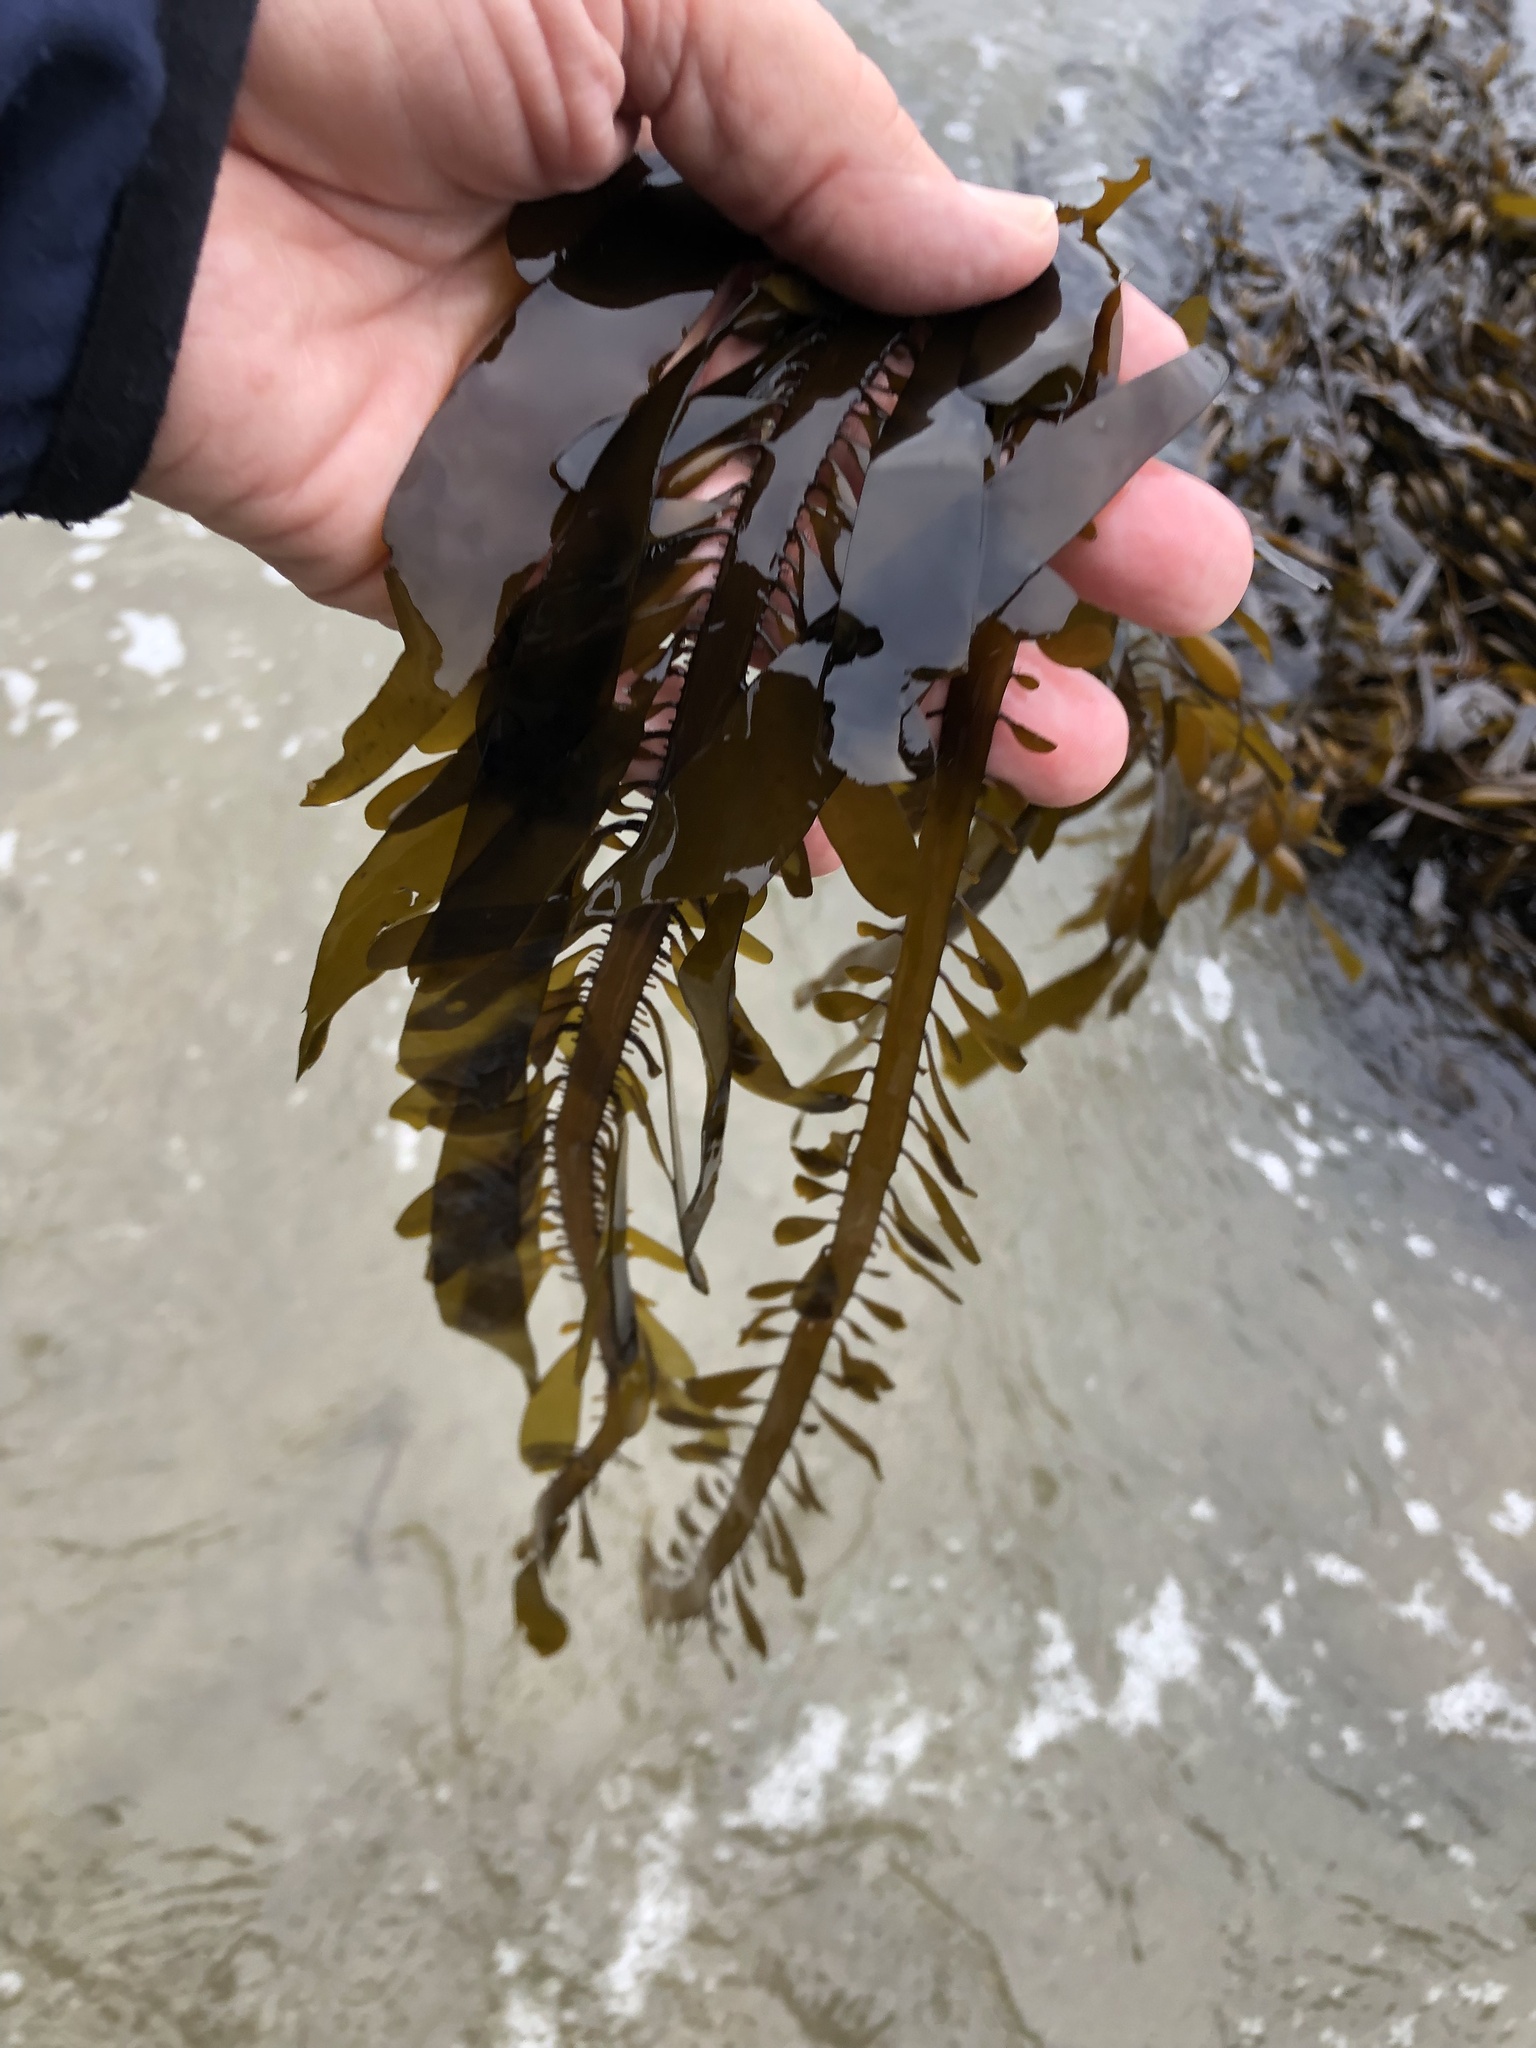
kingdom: Chromista
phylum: Ochrophyta
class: Phaeophyceae
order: Laminariales
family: Lessoniaceae
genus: Egregia
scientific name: Egregia menziesii
